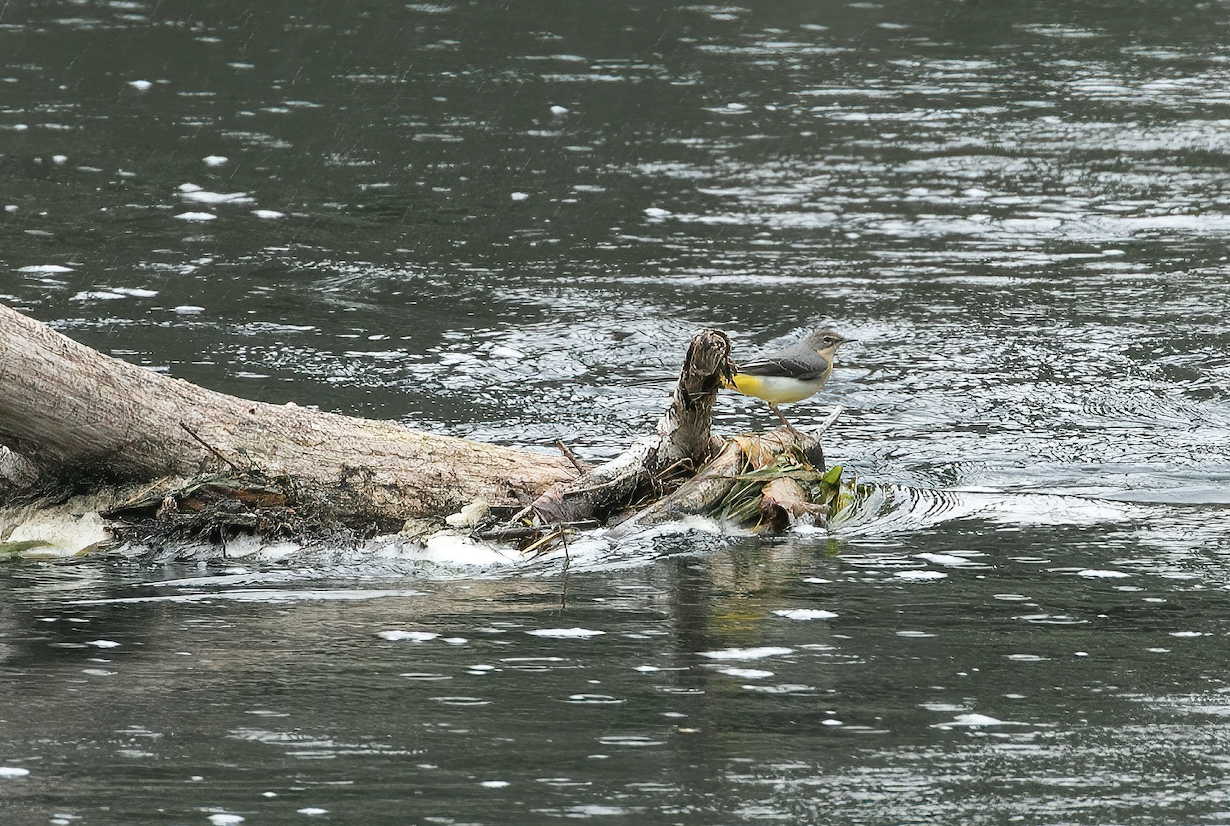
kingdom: Animalia
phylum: Chordata
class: Aves
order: Passeriformes
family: Motacillidae
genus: Motacilla
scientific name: Motacilla cinerea
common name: Grey wagtail
